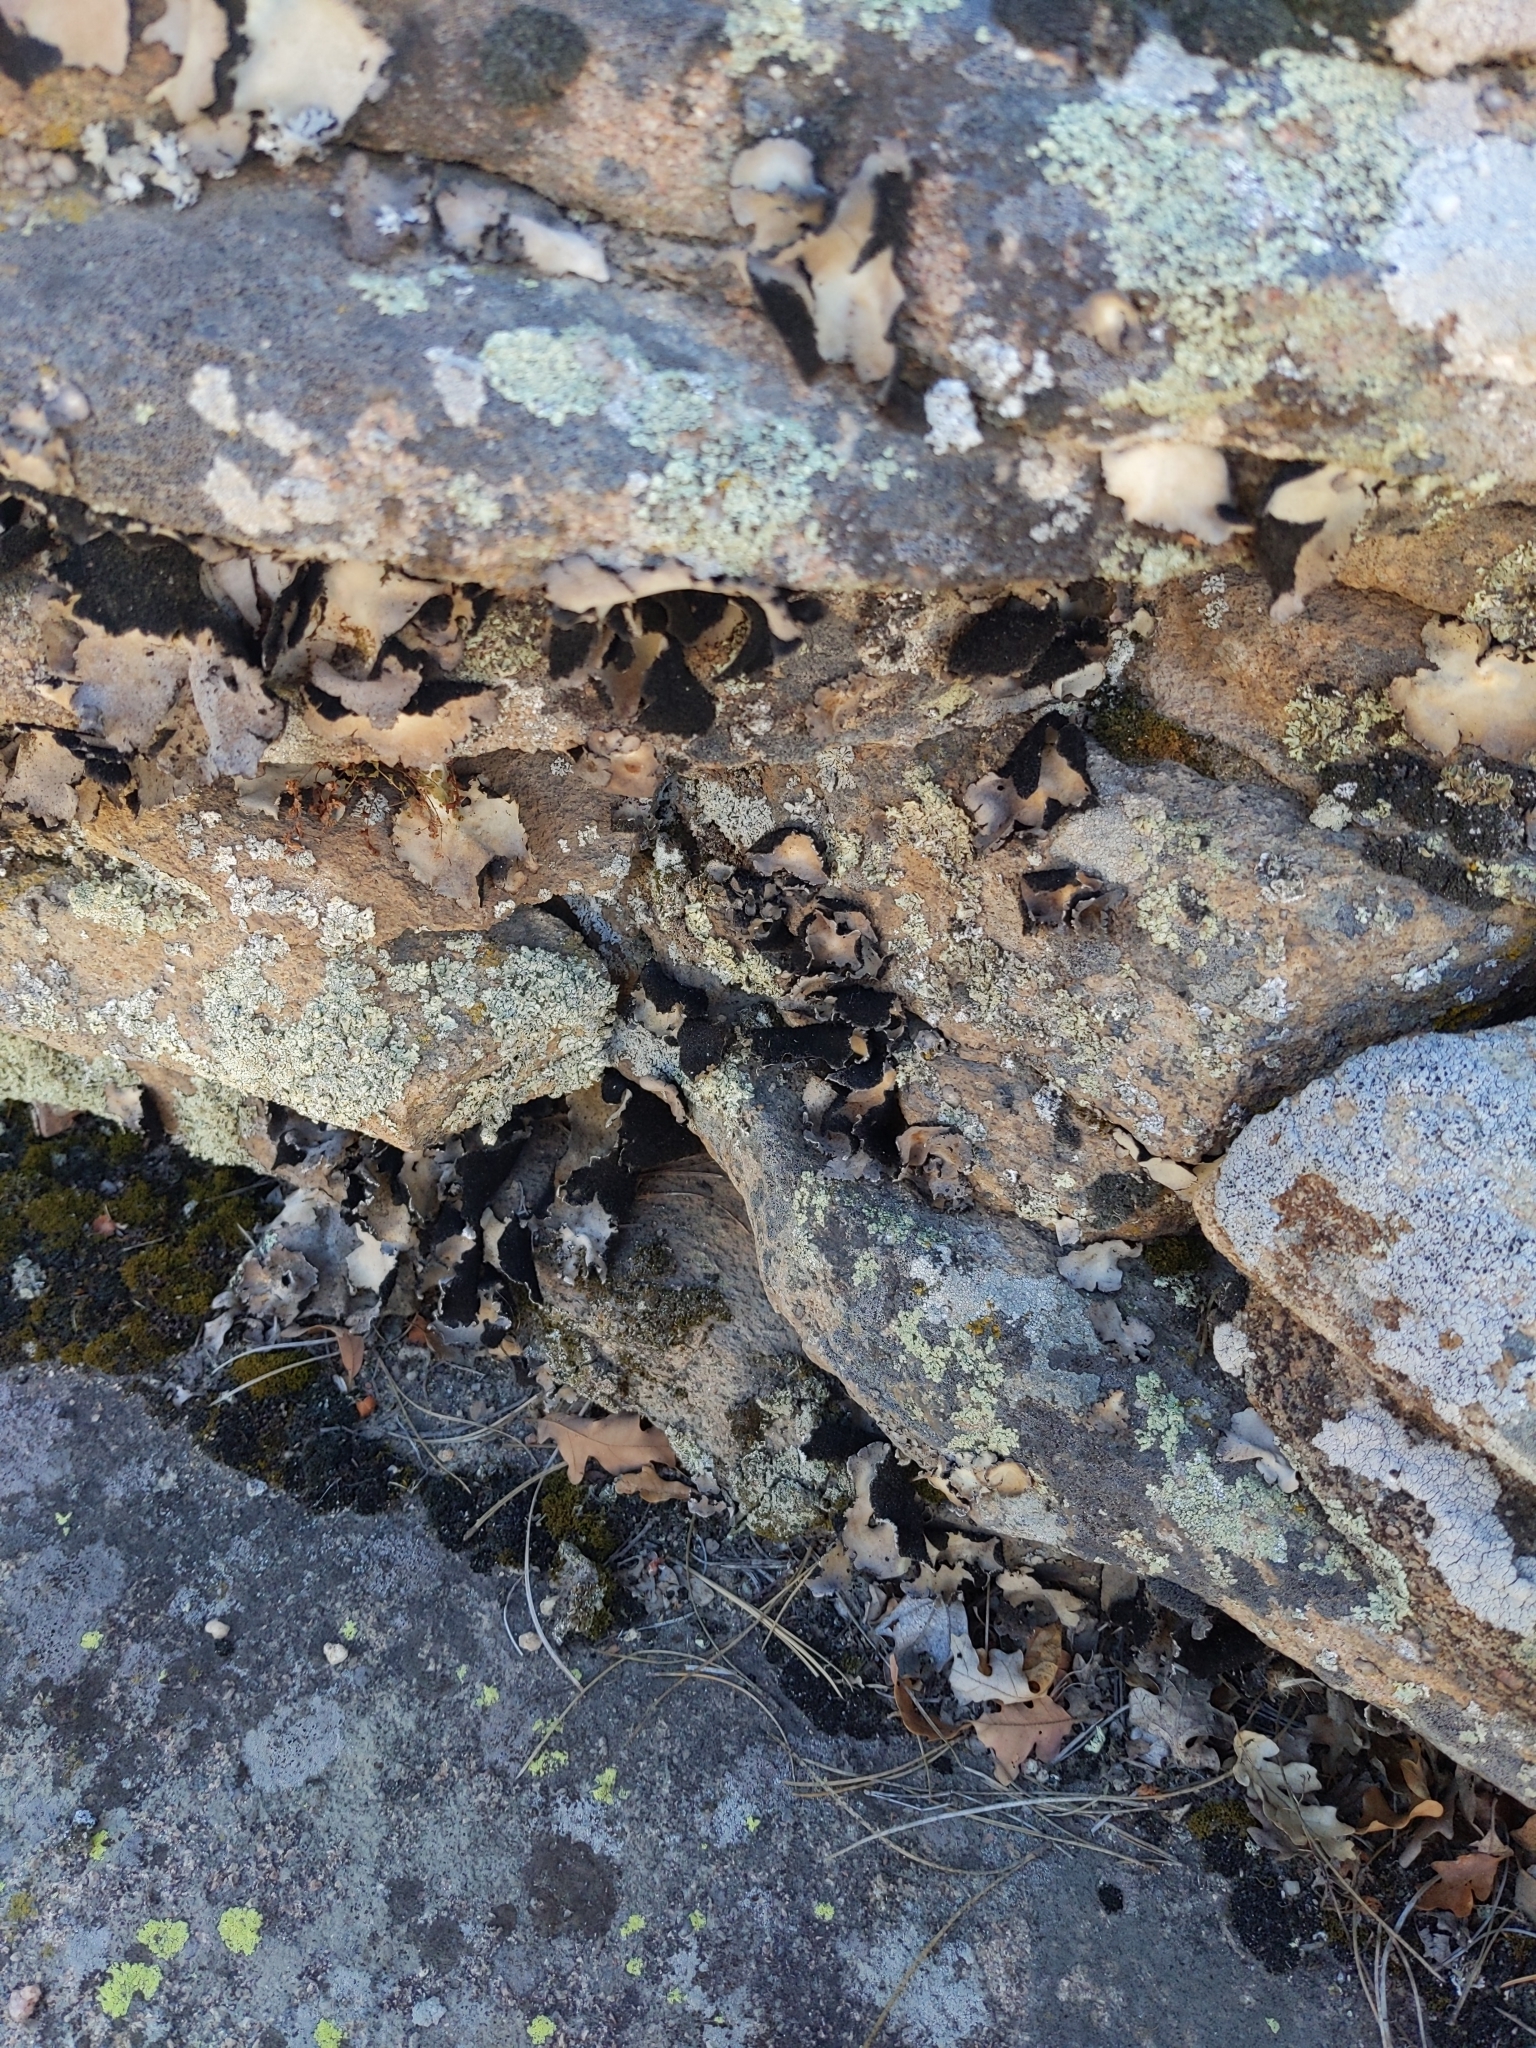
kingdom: Fungi
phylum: Ascomycota
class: Lecanoromycetes
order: Umbilicariales
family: Umbilicariaceae
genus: Umbilicaria
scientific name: Umbilicaria americana
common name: Frosted rock tripe
